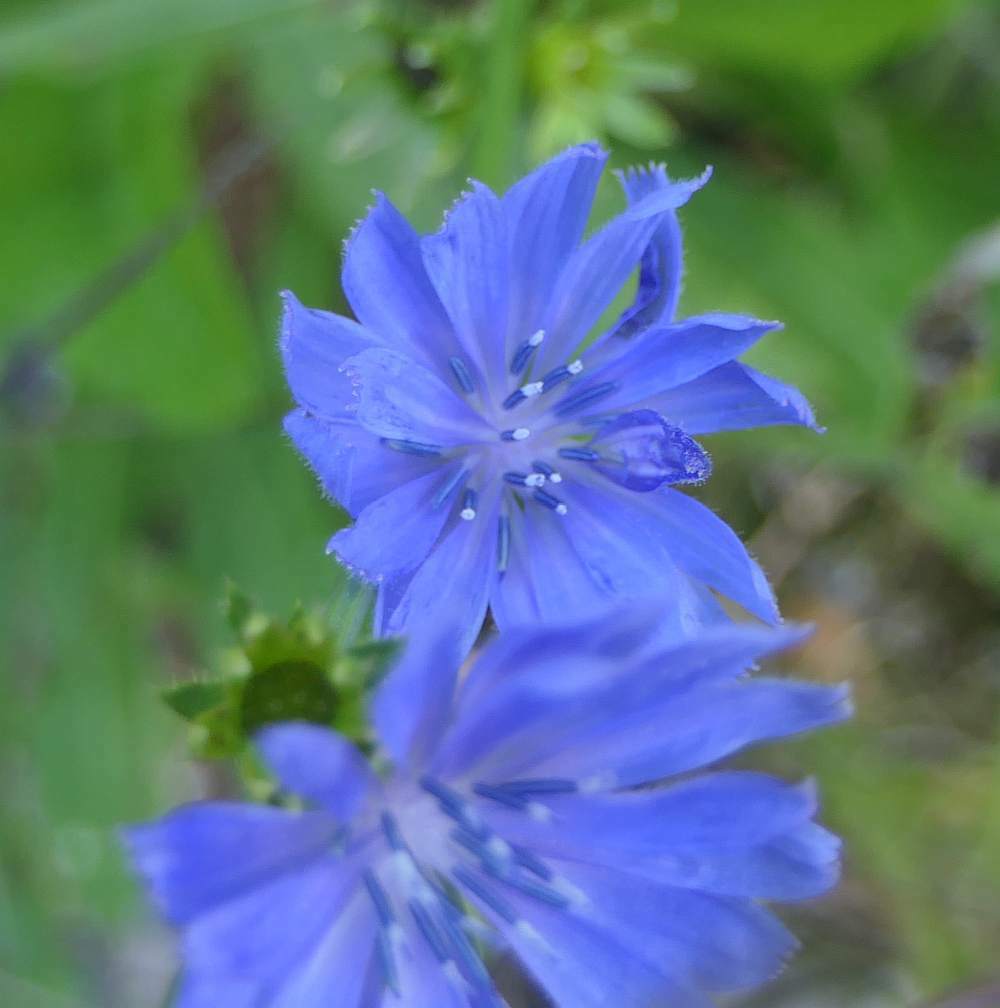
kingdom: Plantae
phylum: Tracheophyta
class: Magnoliopsida
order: Asterales
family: Asteraceae
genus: Cichorium
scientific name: Cichorium intybus
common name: Chicory
